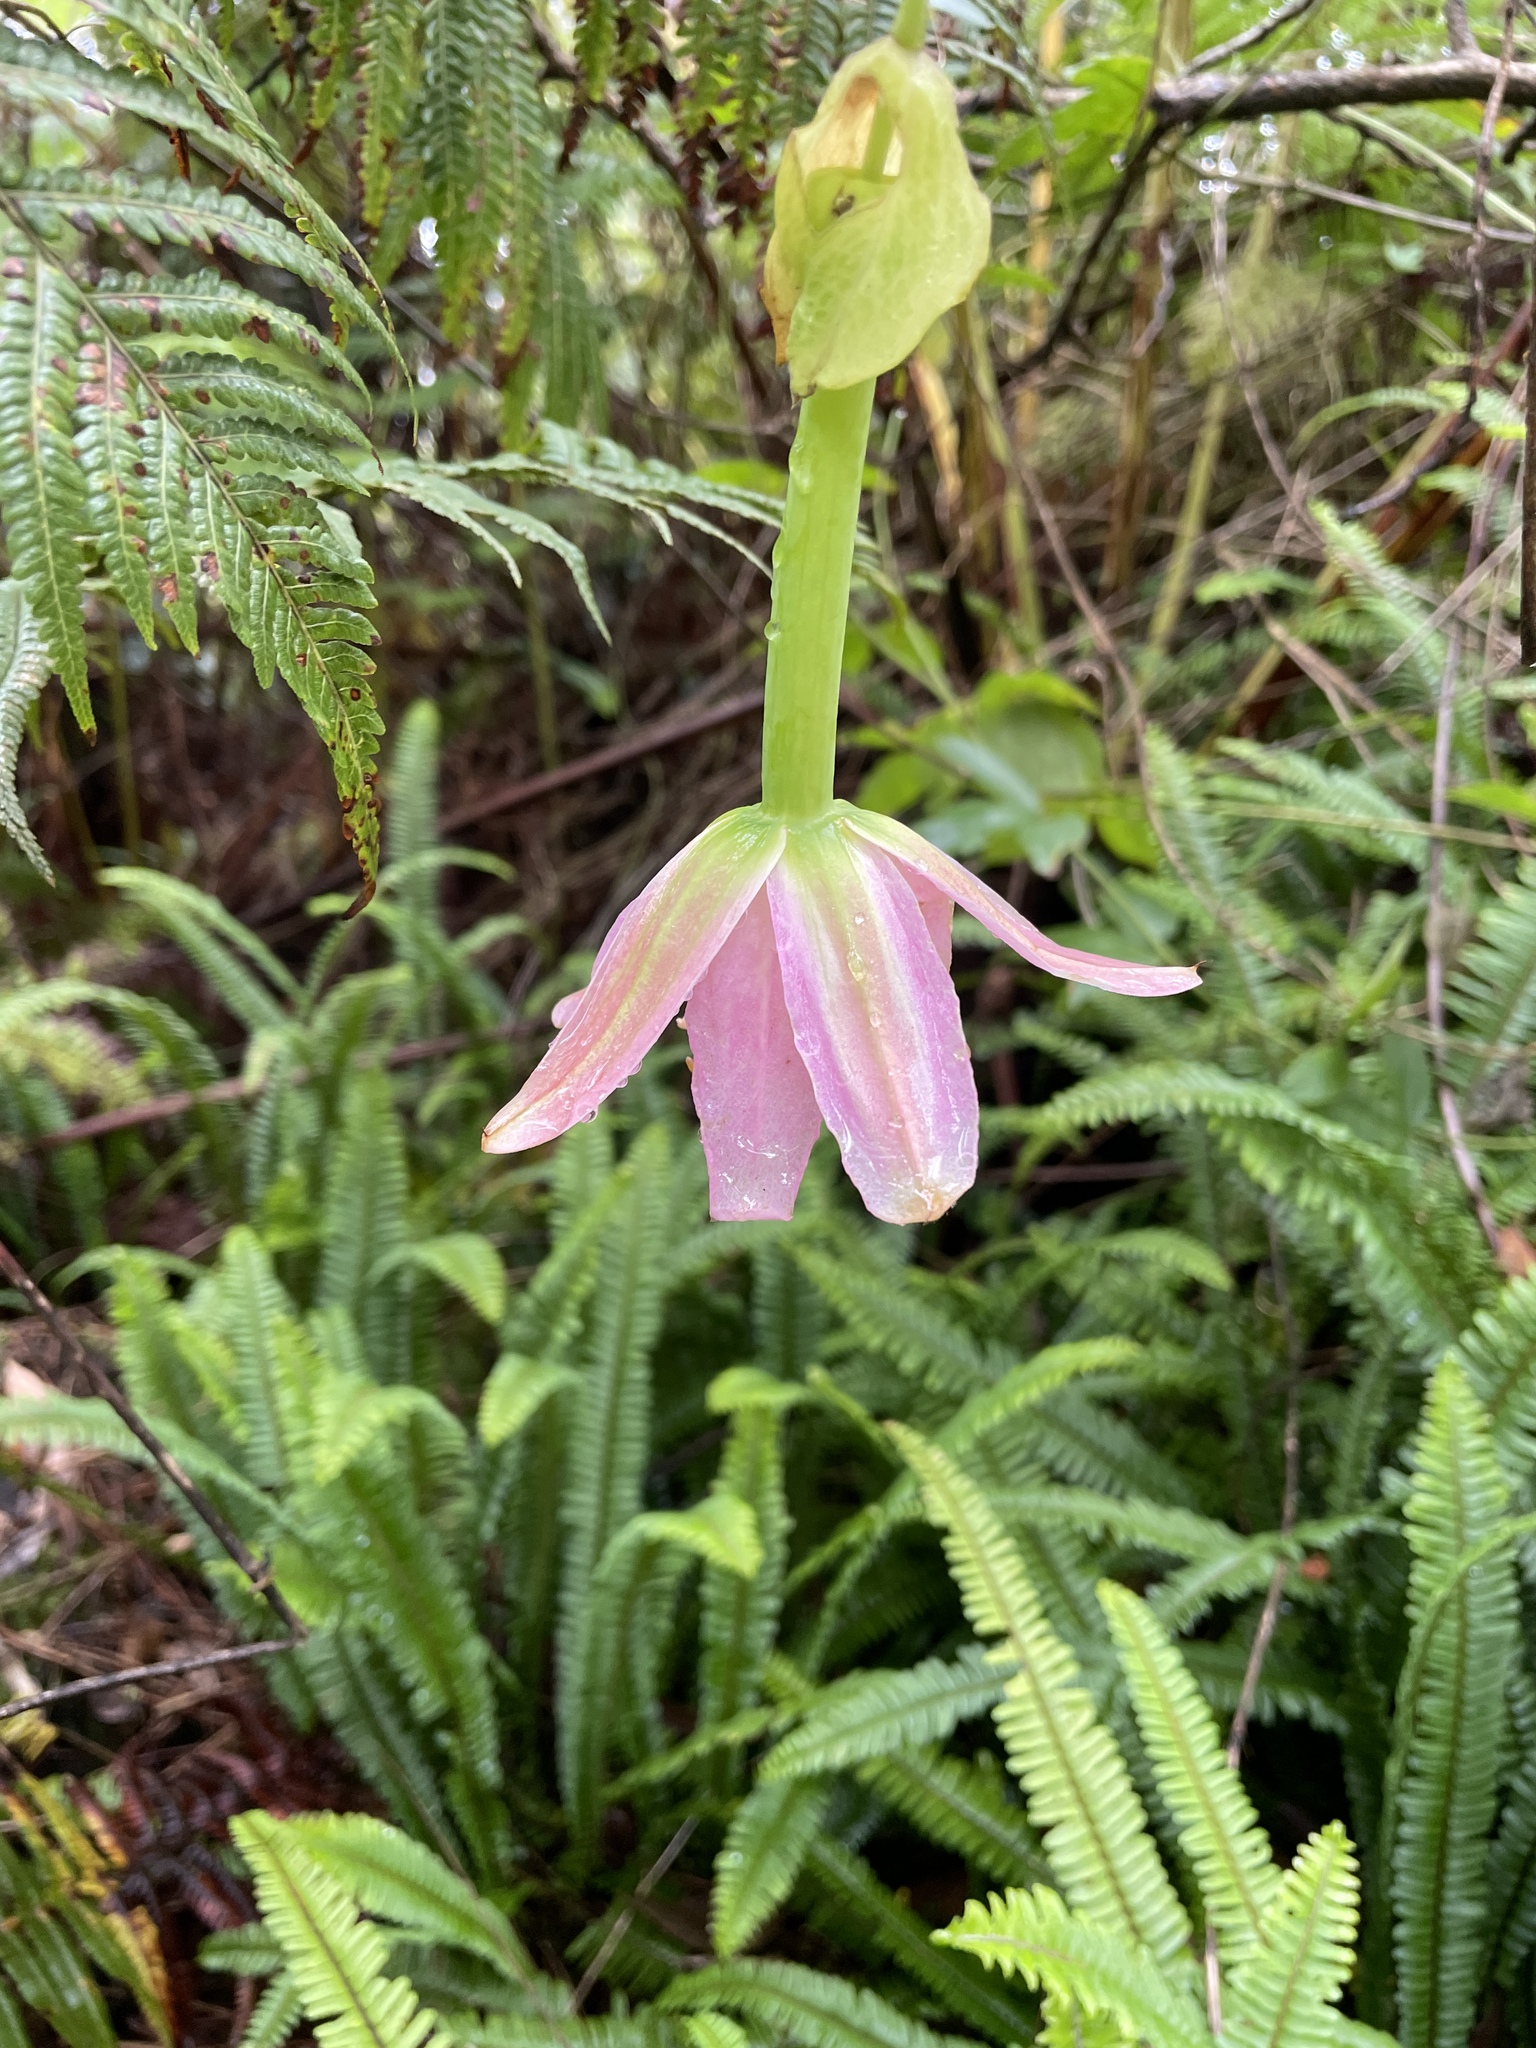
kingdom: Plantae
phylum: Tracheophyta
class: Magnoliopsida
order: Malpighiales
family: Passifloraceae
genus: Passiflora
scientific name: Passiflora tarminiana
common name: Banana poka
